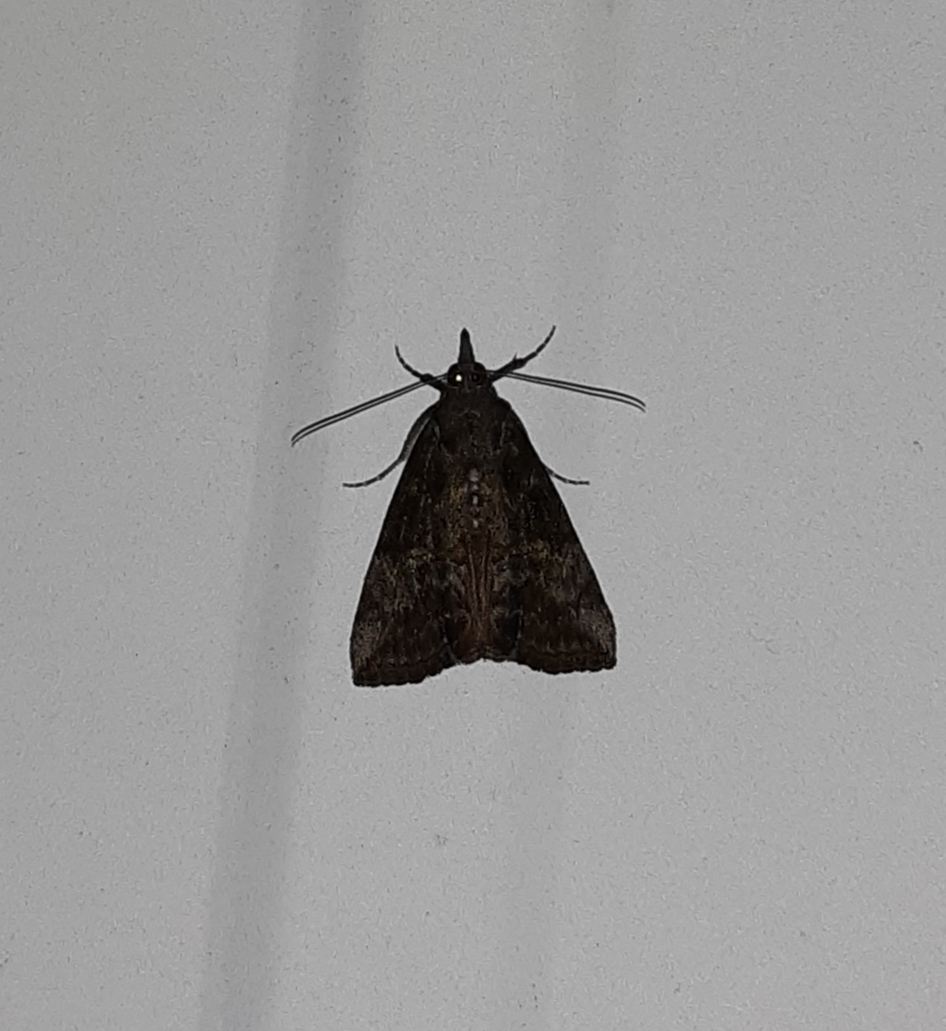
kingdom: Animalia
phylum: Arthropoda
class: Insecta
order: Lepidoptera
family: Erebidae
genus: Hypena
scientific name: Hypena scabra
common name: Green cloverworm
